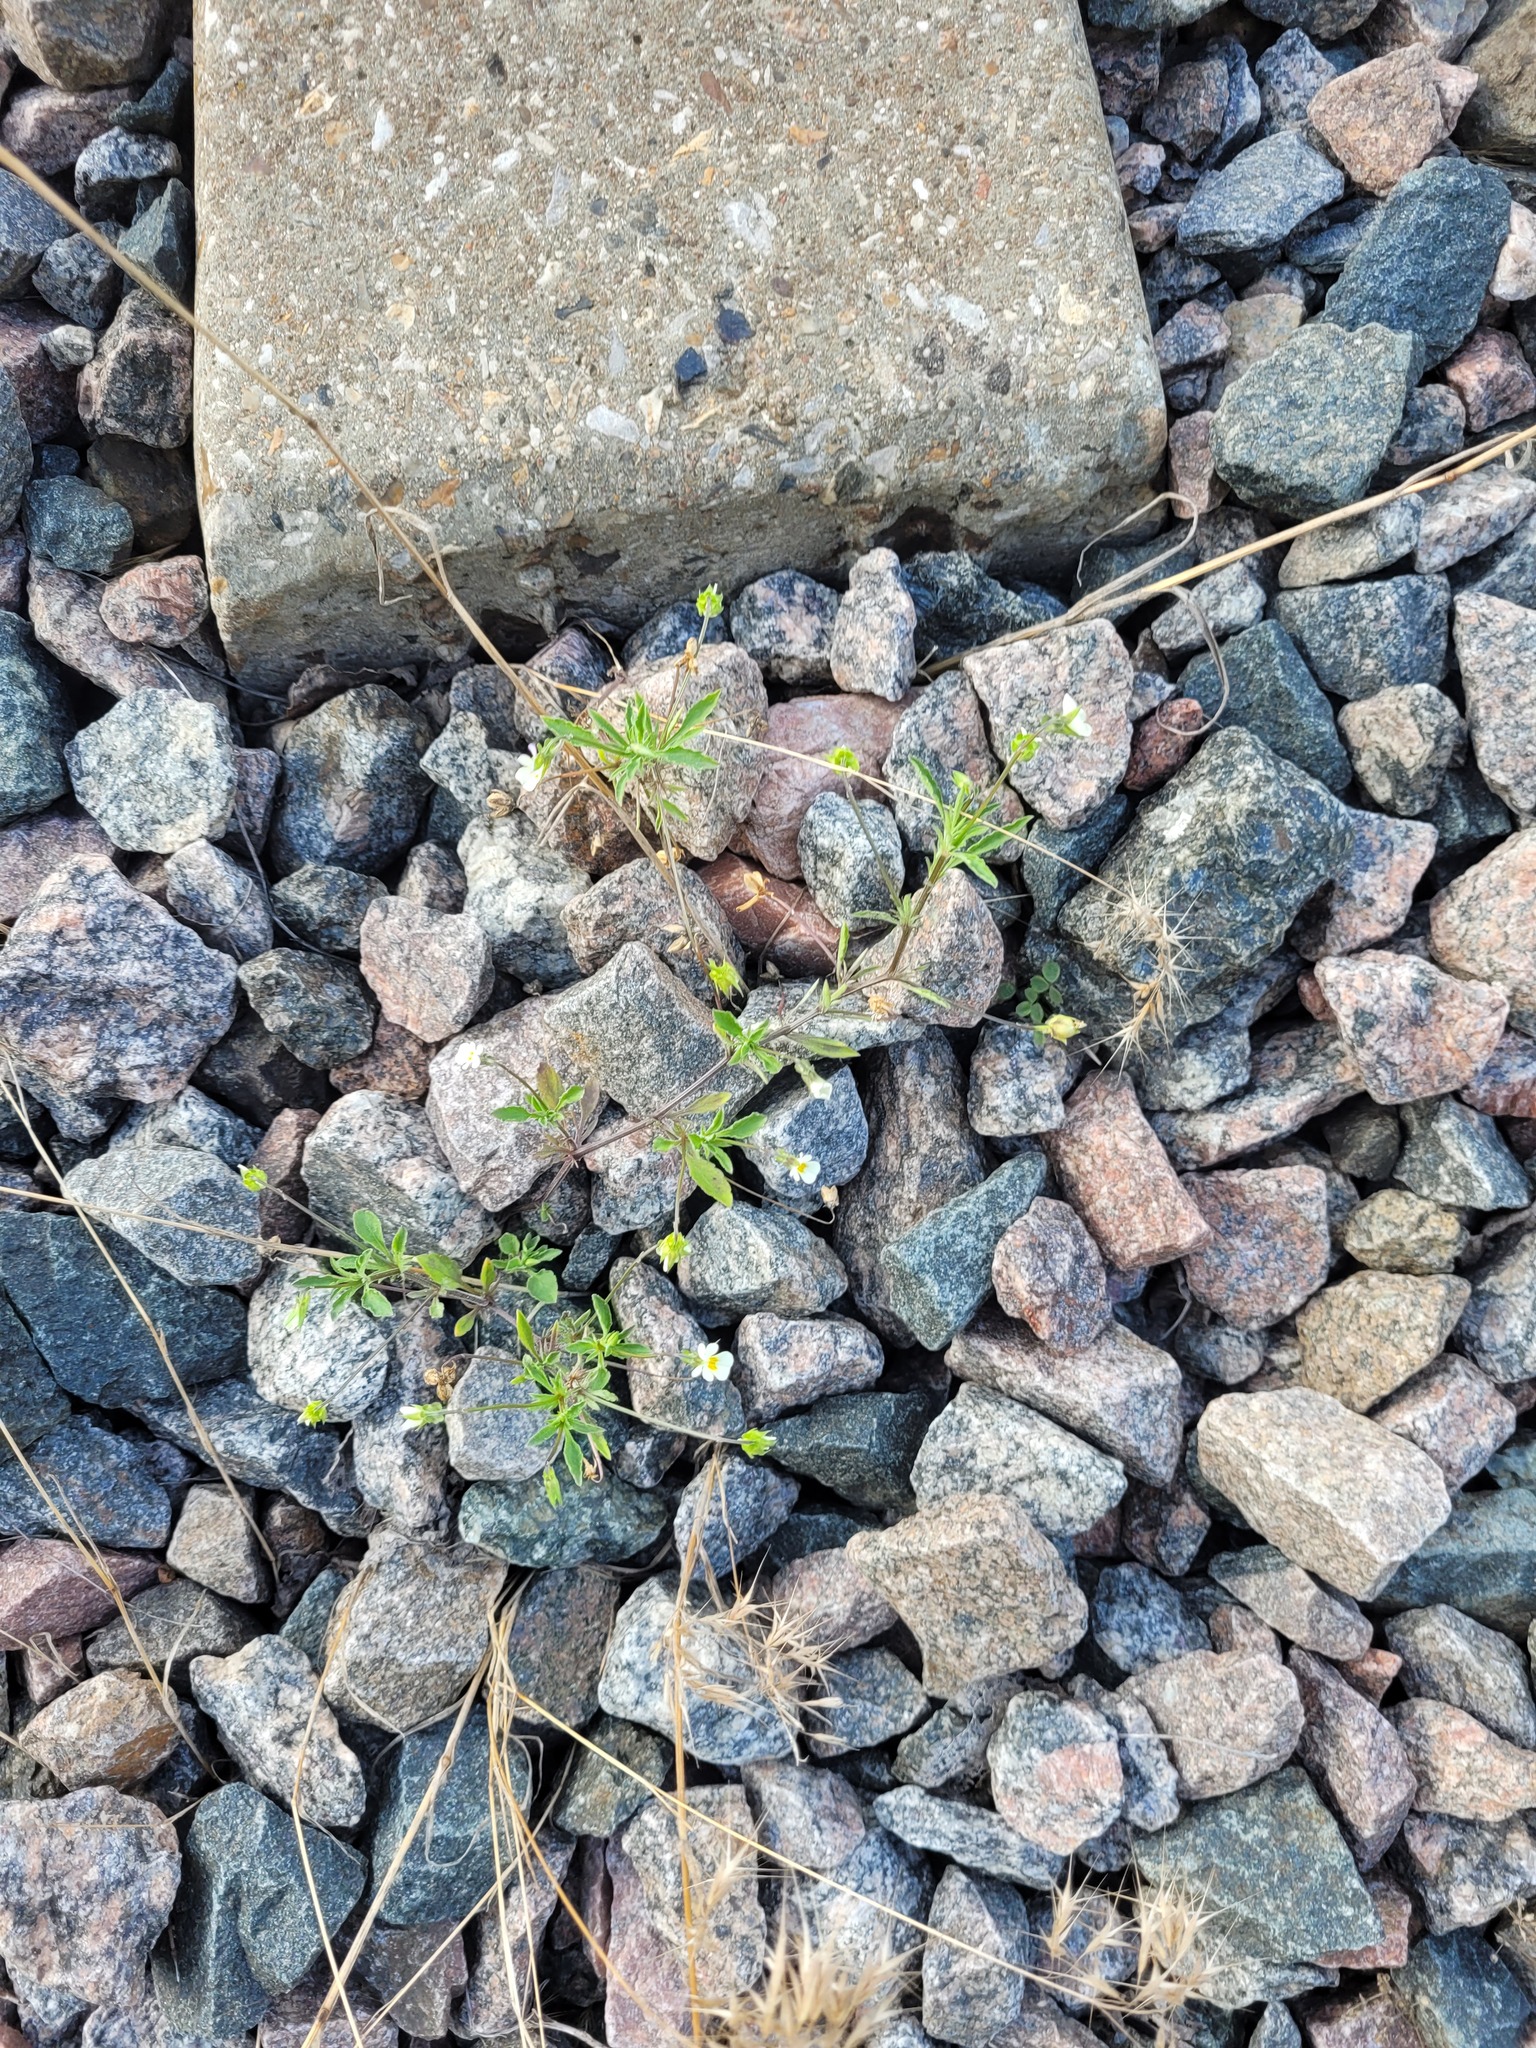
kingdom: Plantae
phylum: Tracheophyta
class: Magnoliopsida
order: Malpighiales
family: Violaceae
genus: Viola
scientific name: Viola arvensis
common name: Field pansy
